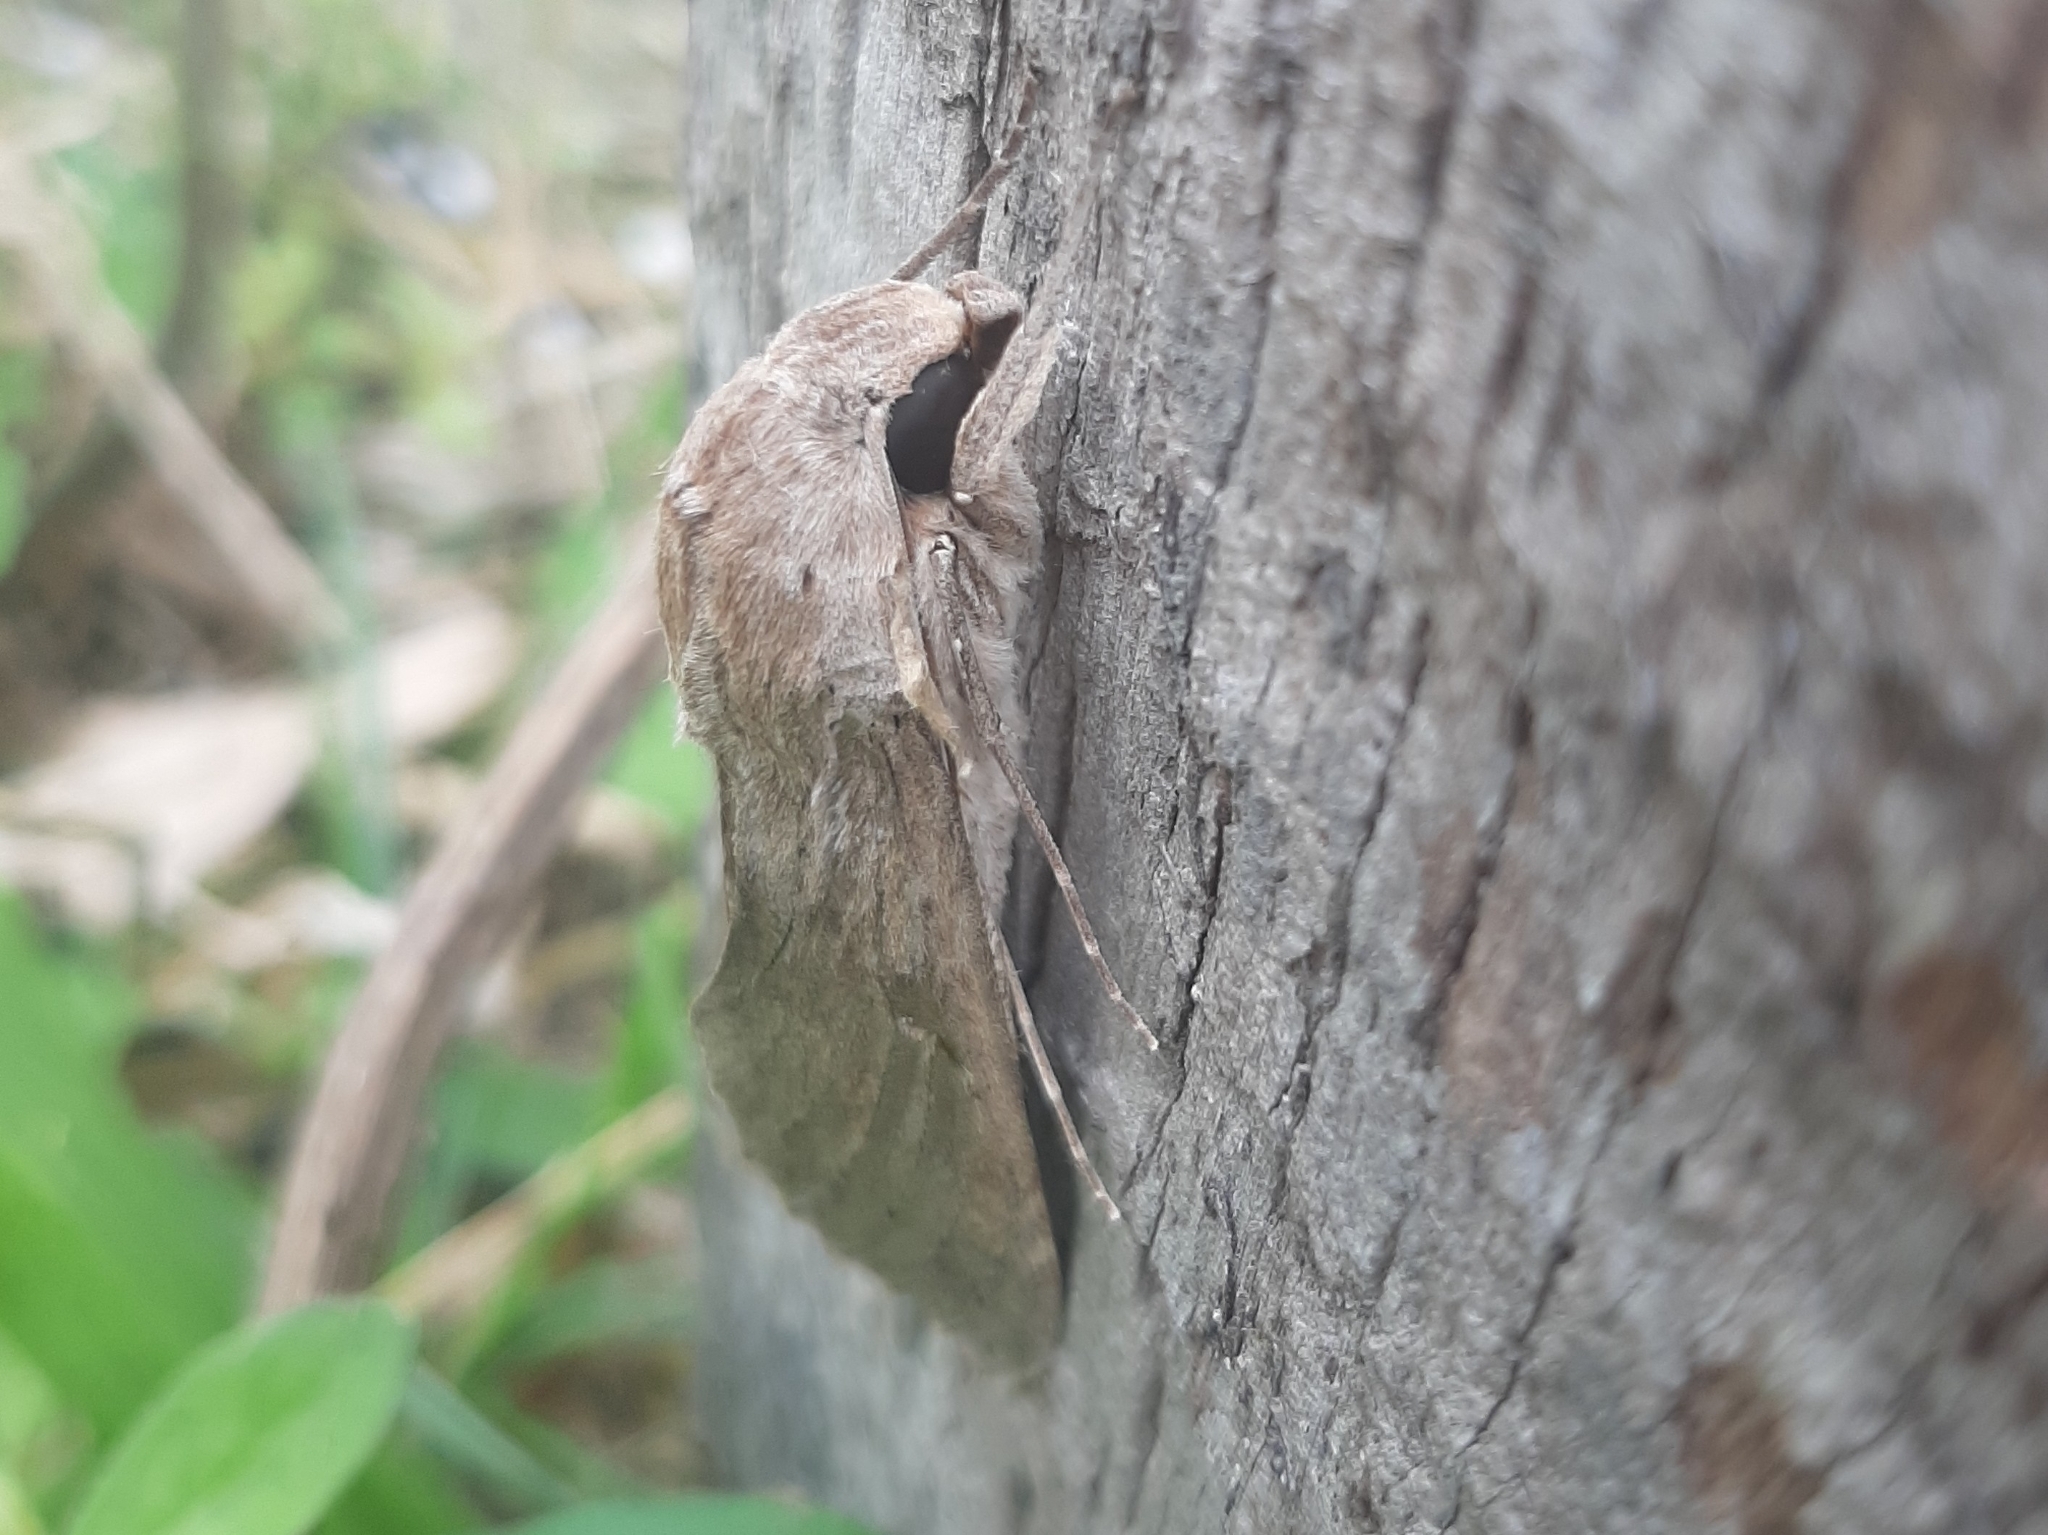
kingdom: Animalia
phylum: Arthropoda
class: Insecta
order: Lepidoptera
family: Sphingidae
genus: Erinnyis
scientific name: Erinnyis ello
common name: Ello sphinx
